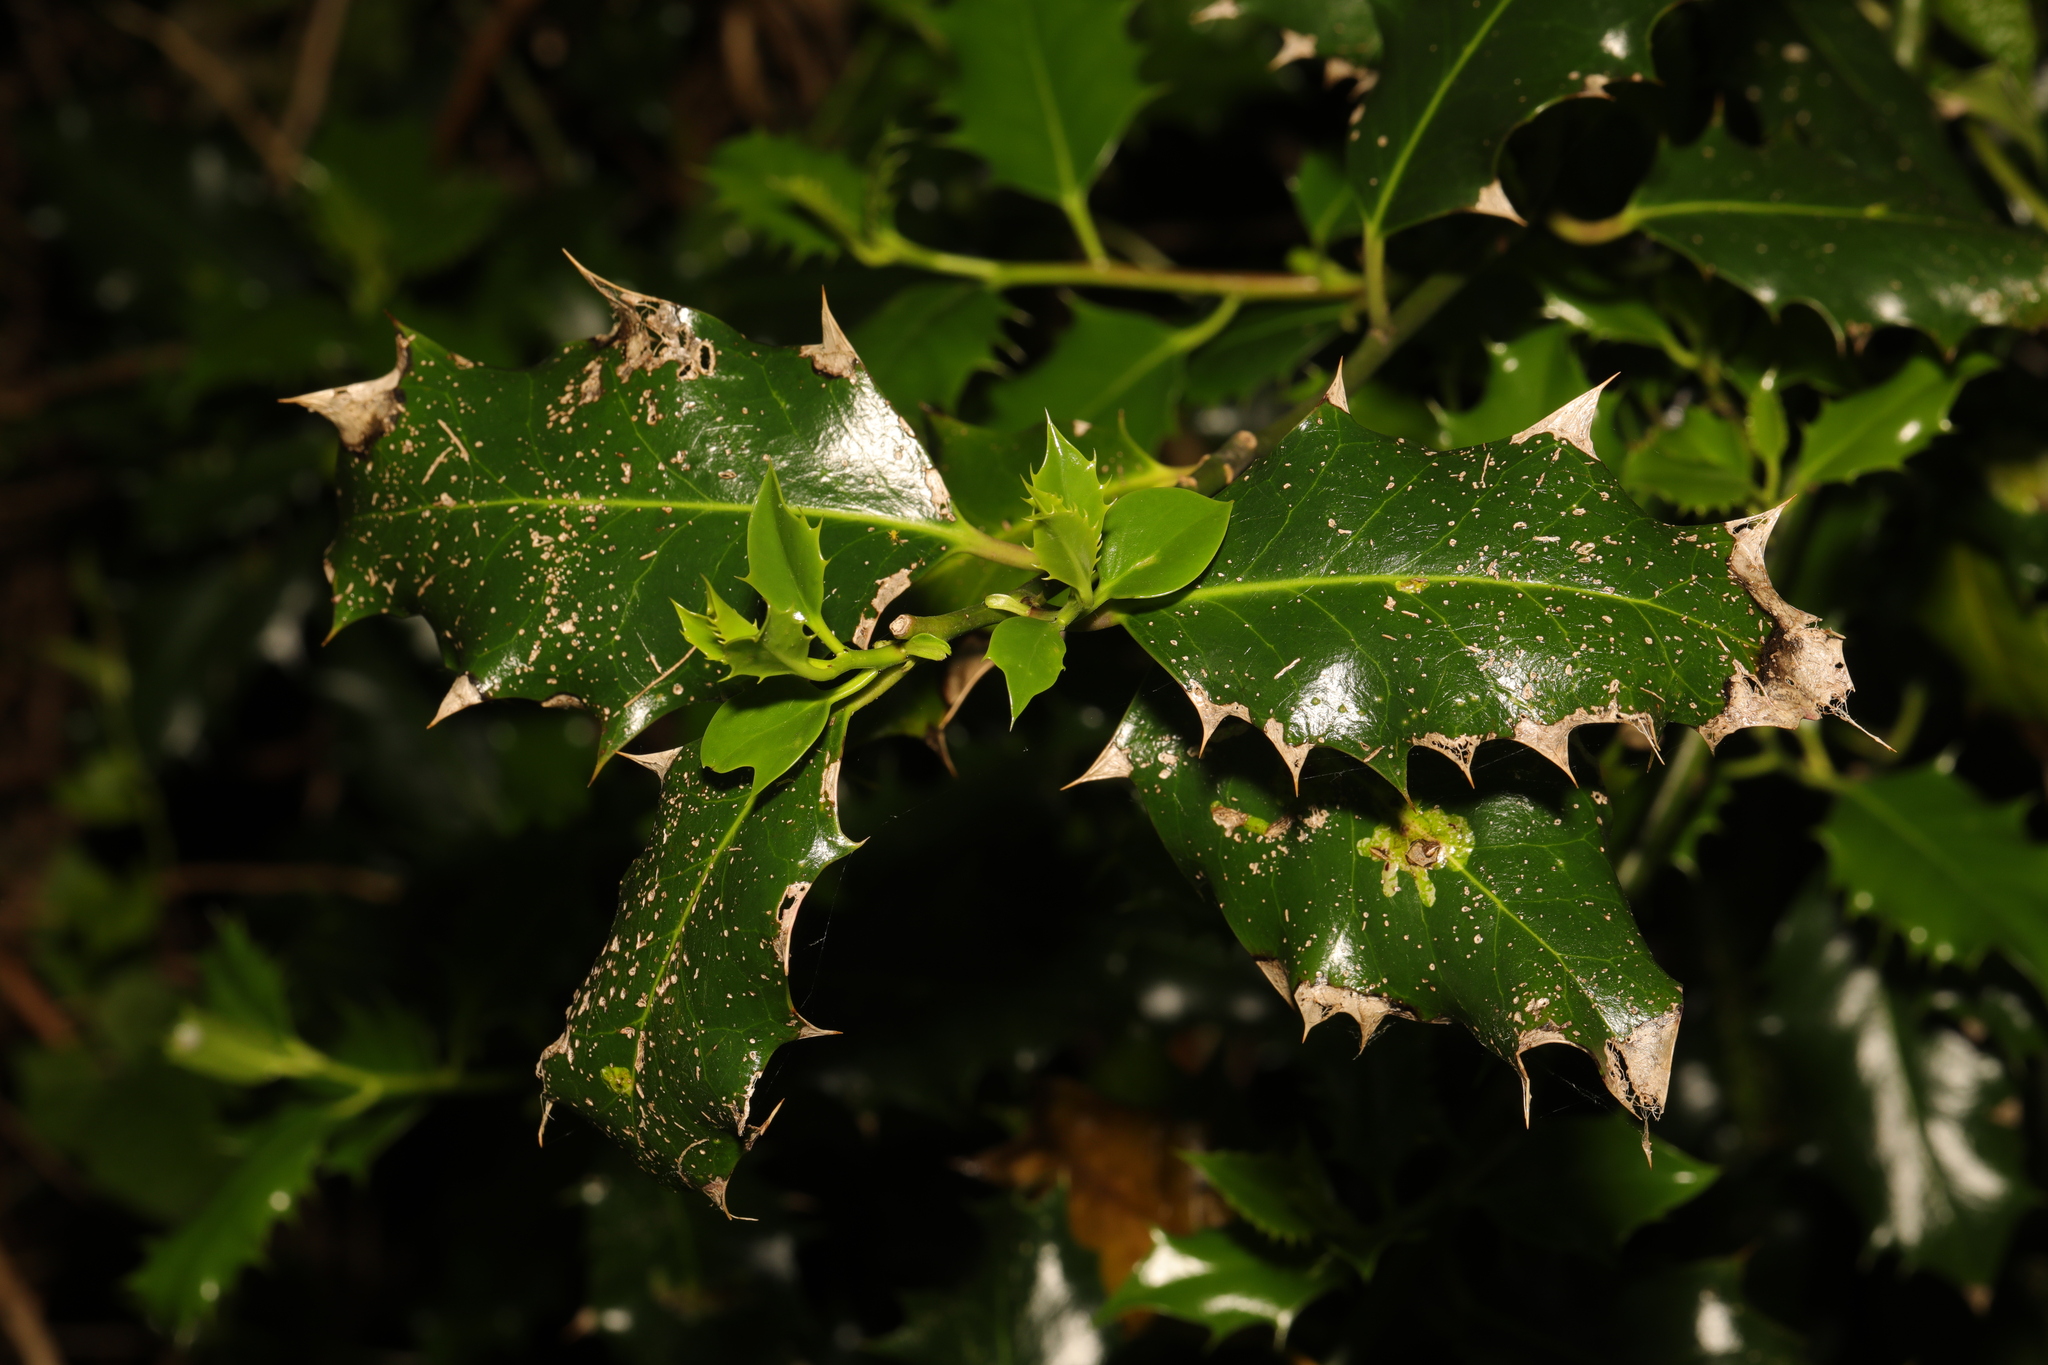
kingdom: Plantae
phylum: Tracheophyta
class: Magnoliopsida
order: Aquifoliales
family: Aquifoliaceae
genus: Ilex
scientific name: Ilex aquifolium
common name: English holly
